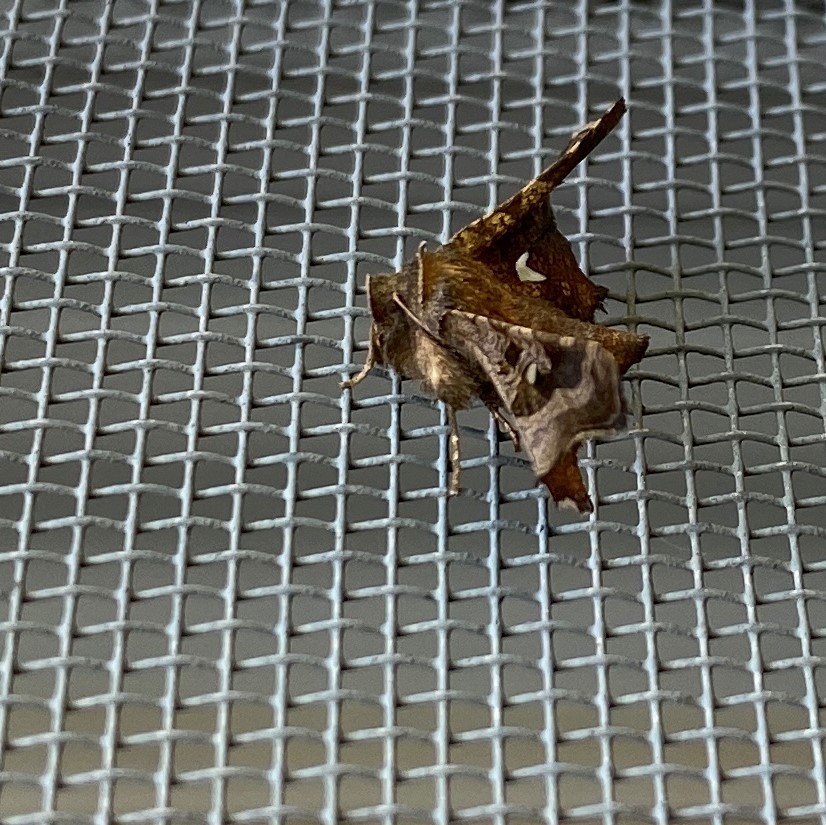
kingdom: Animalia
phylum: Arthropoda
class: Insecta
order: Lepidoptera
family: Noctuidae
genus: Megalographa
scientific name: Megalographa biloba
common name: Cutworm
